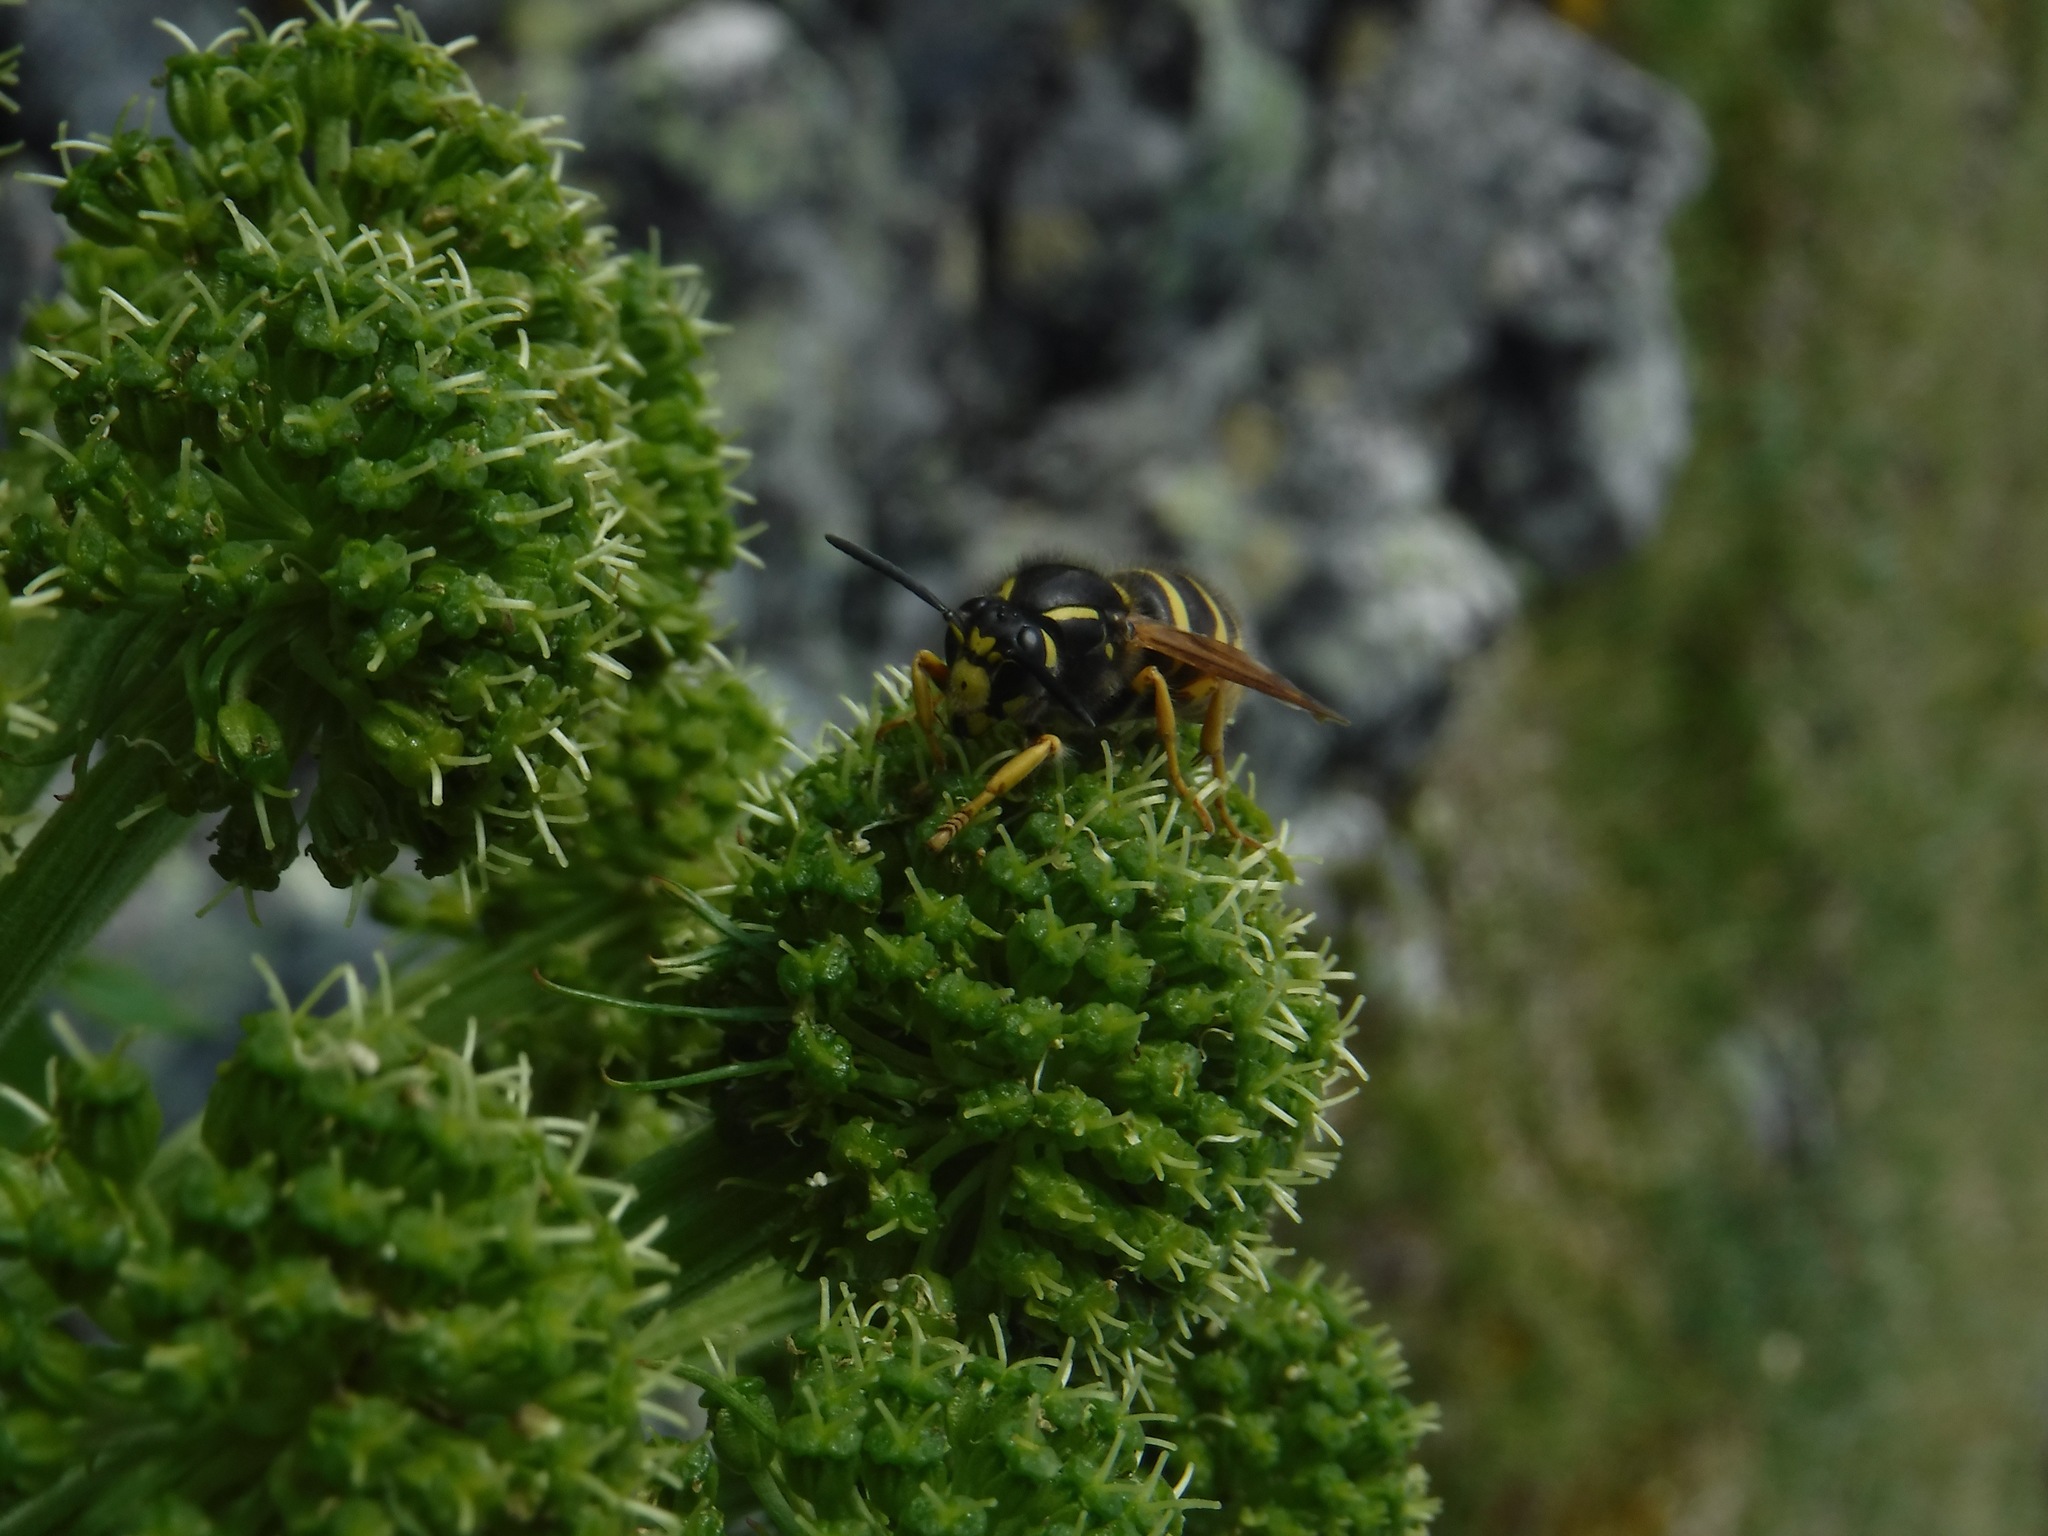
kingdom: Animalia
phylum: Arthropoda
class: Insecta
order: Hymenoptera
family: Vespidae
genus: Dolichovespula
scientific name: Dolichovespula omissa
